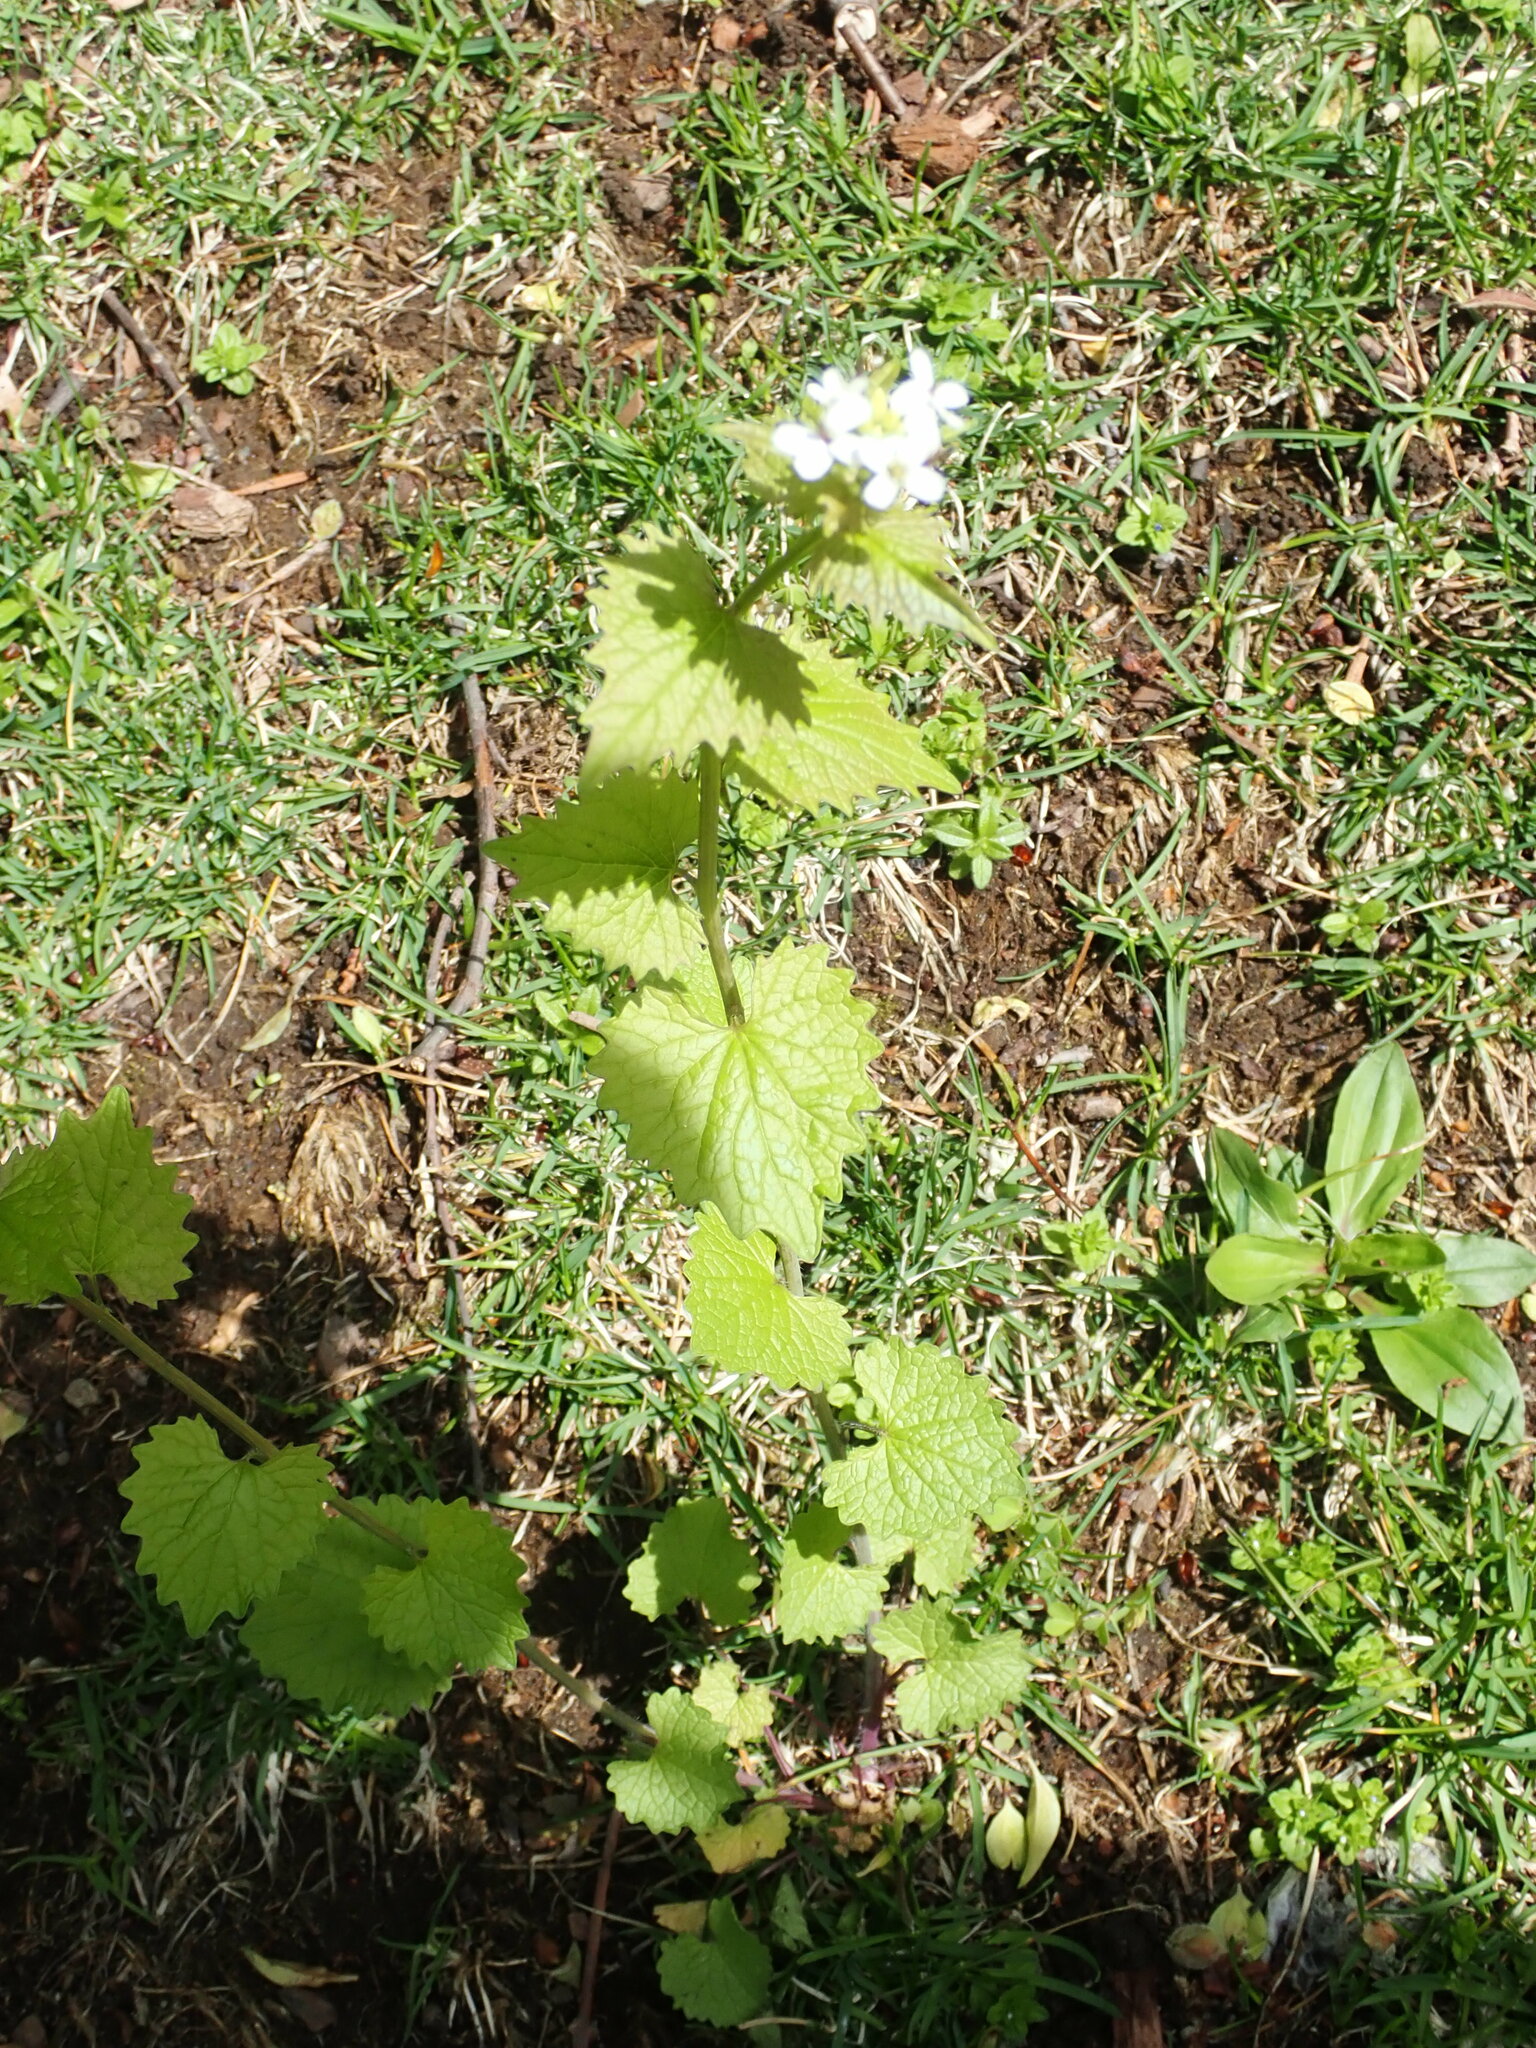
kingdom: Plantae
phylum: Tracheophyta
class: Magnoliopsida
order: Brassicales
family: Brassicaceae
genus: Alliaria
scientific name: Alliaria petiolata
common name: Garlic mustard
